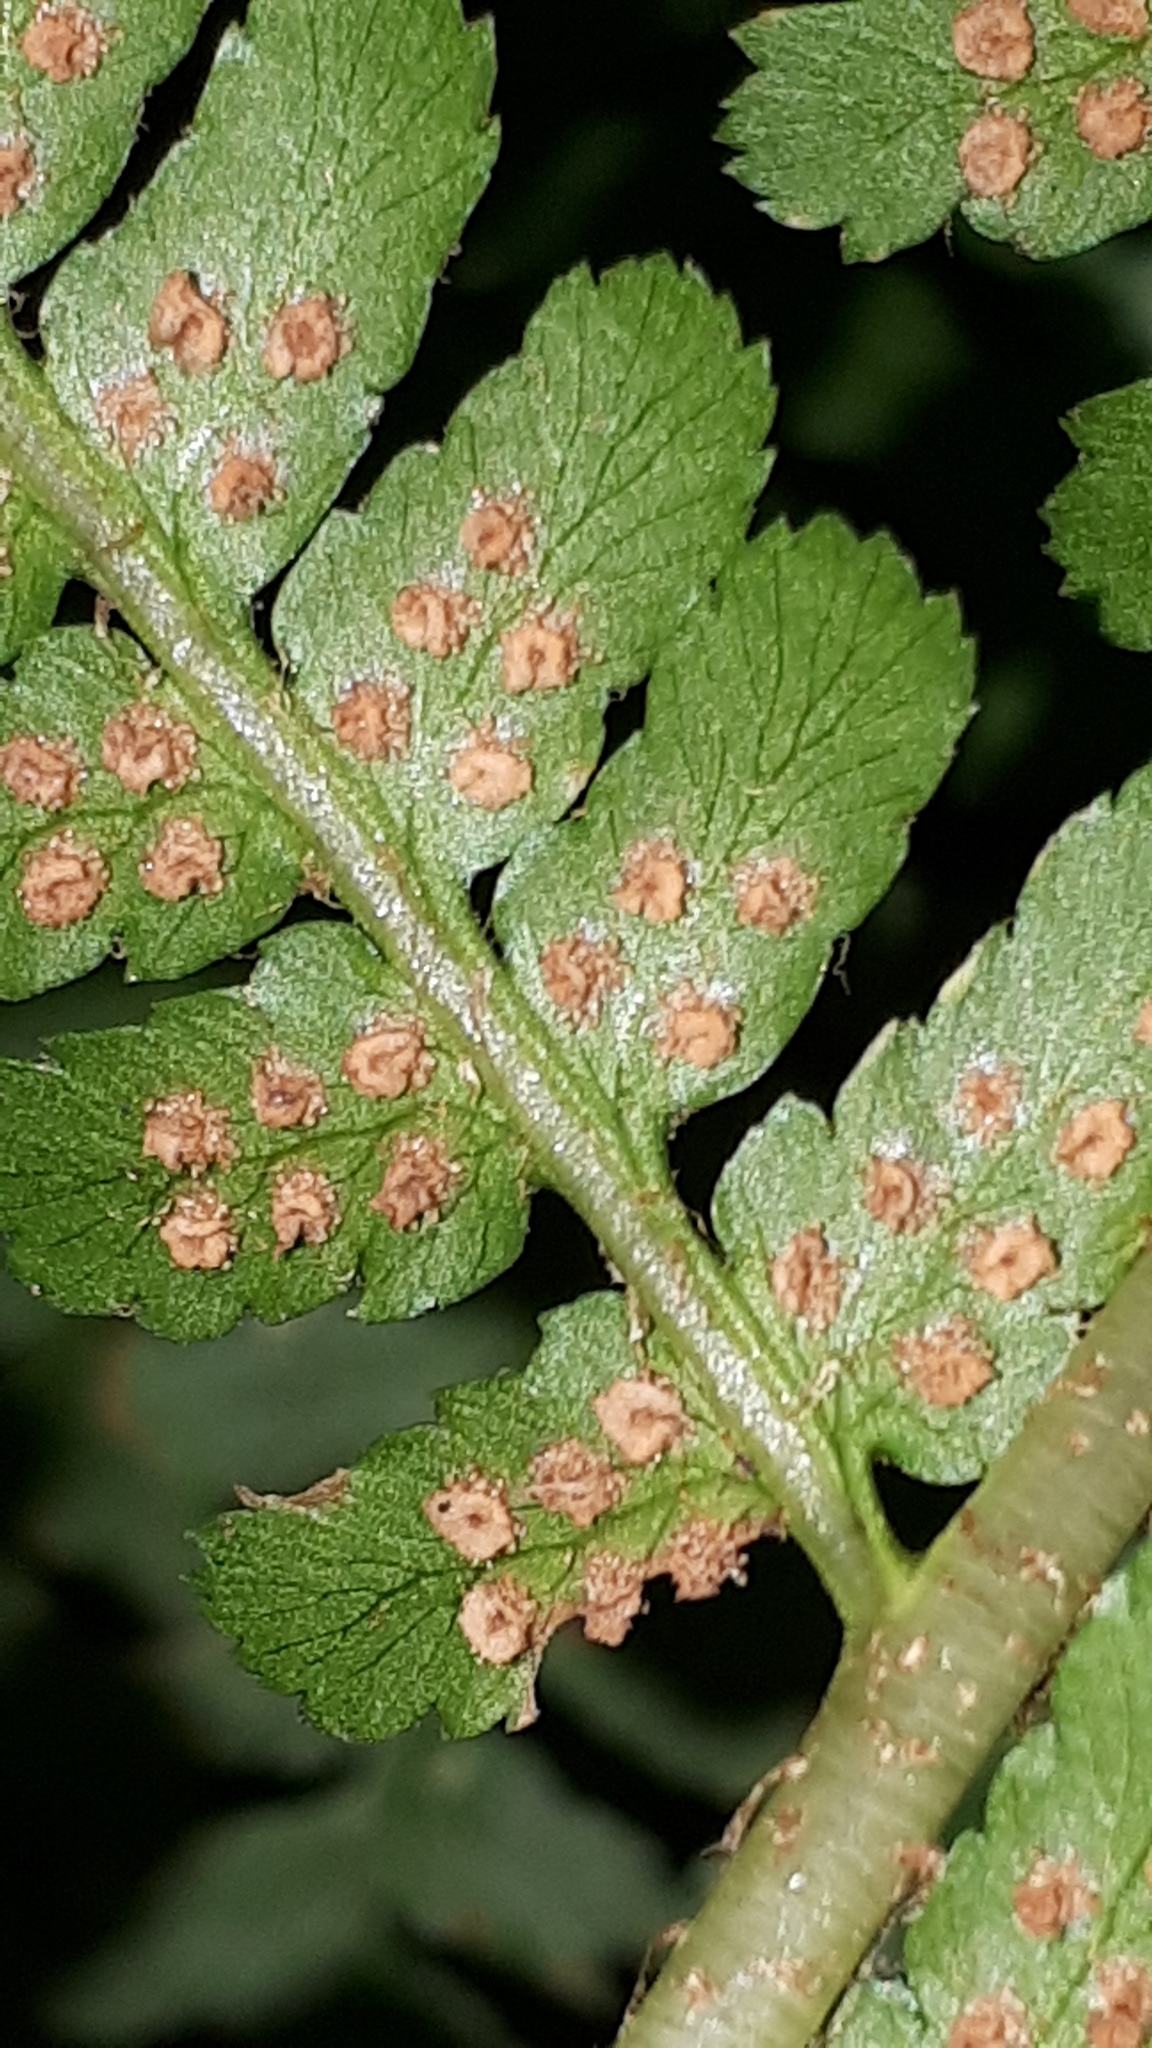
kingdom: Plantae
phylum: Tracheophyta
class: Polypodiopsida
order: Polypodiales
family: Dryopteridaceae
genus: Dryopteris
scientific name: Dryopteris filix-mas
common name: Male fern
